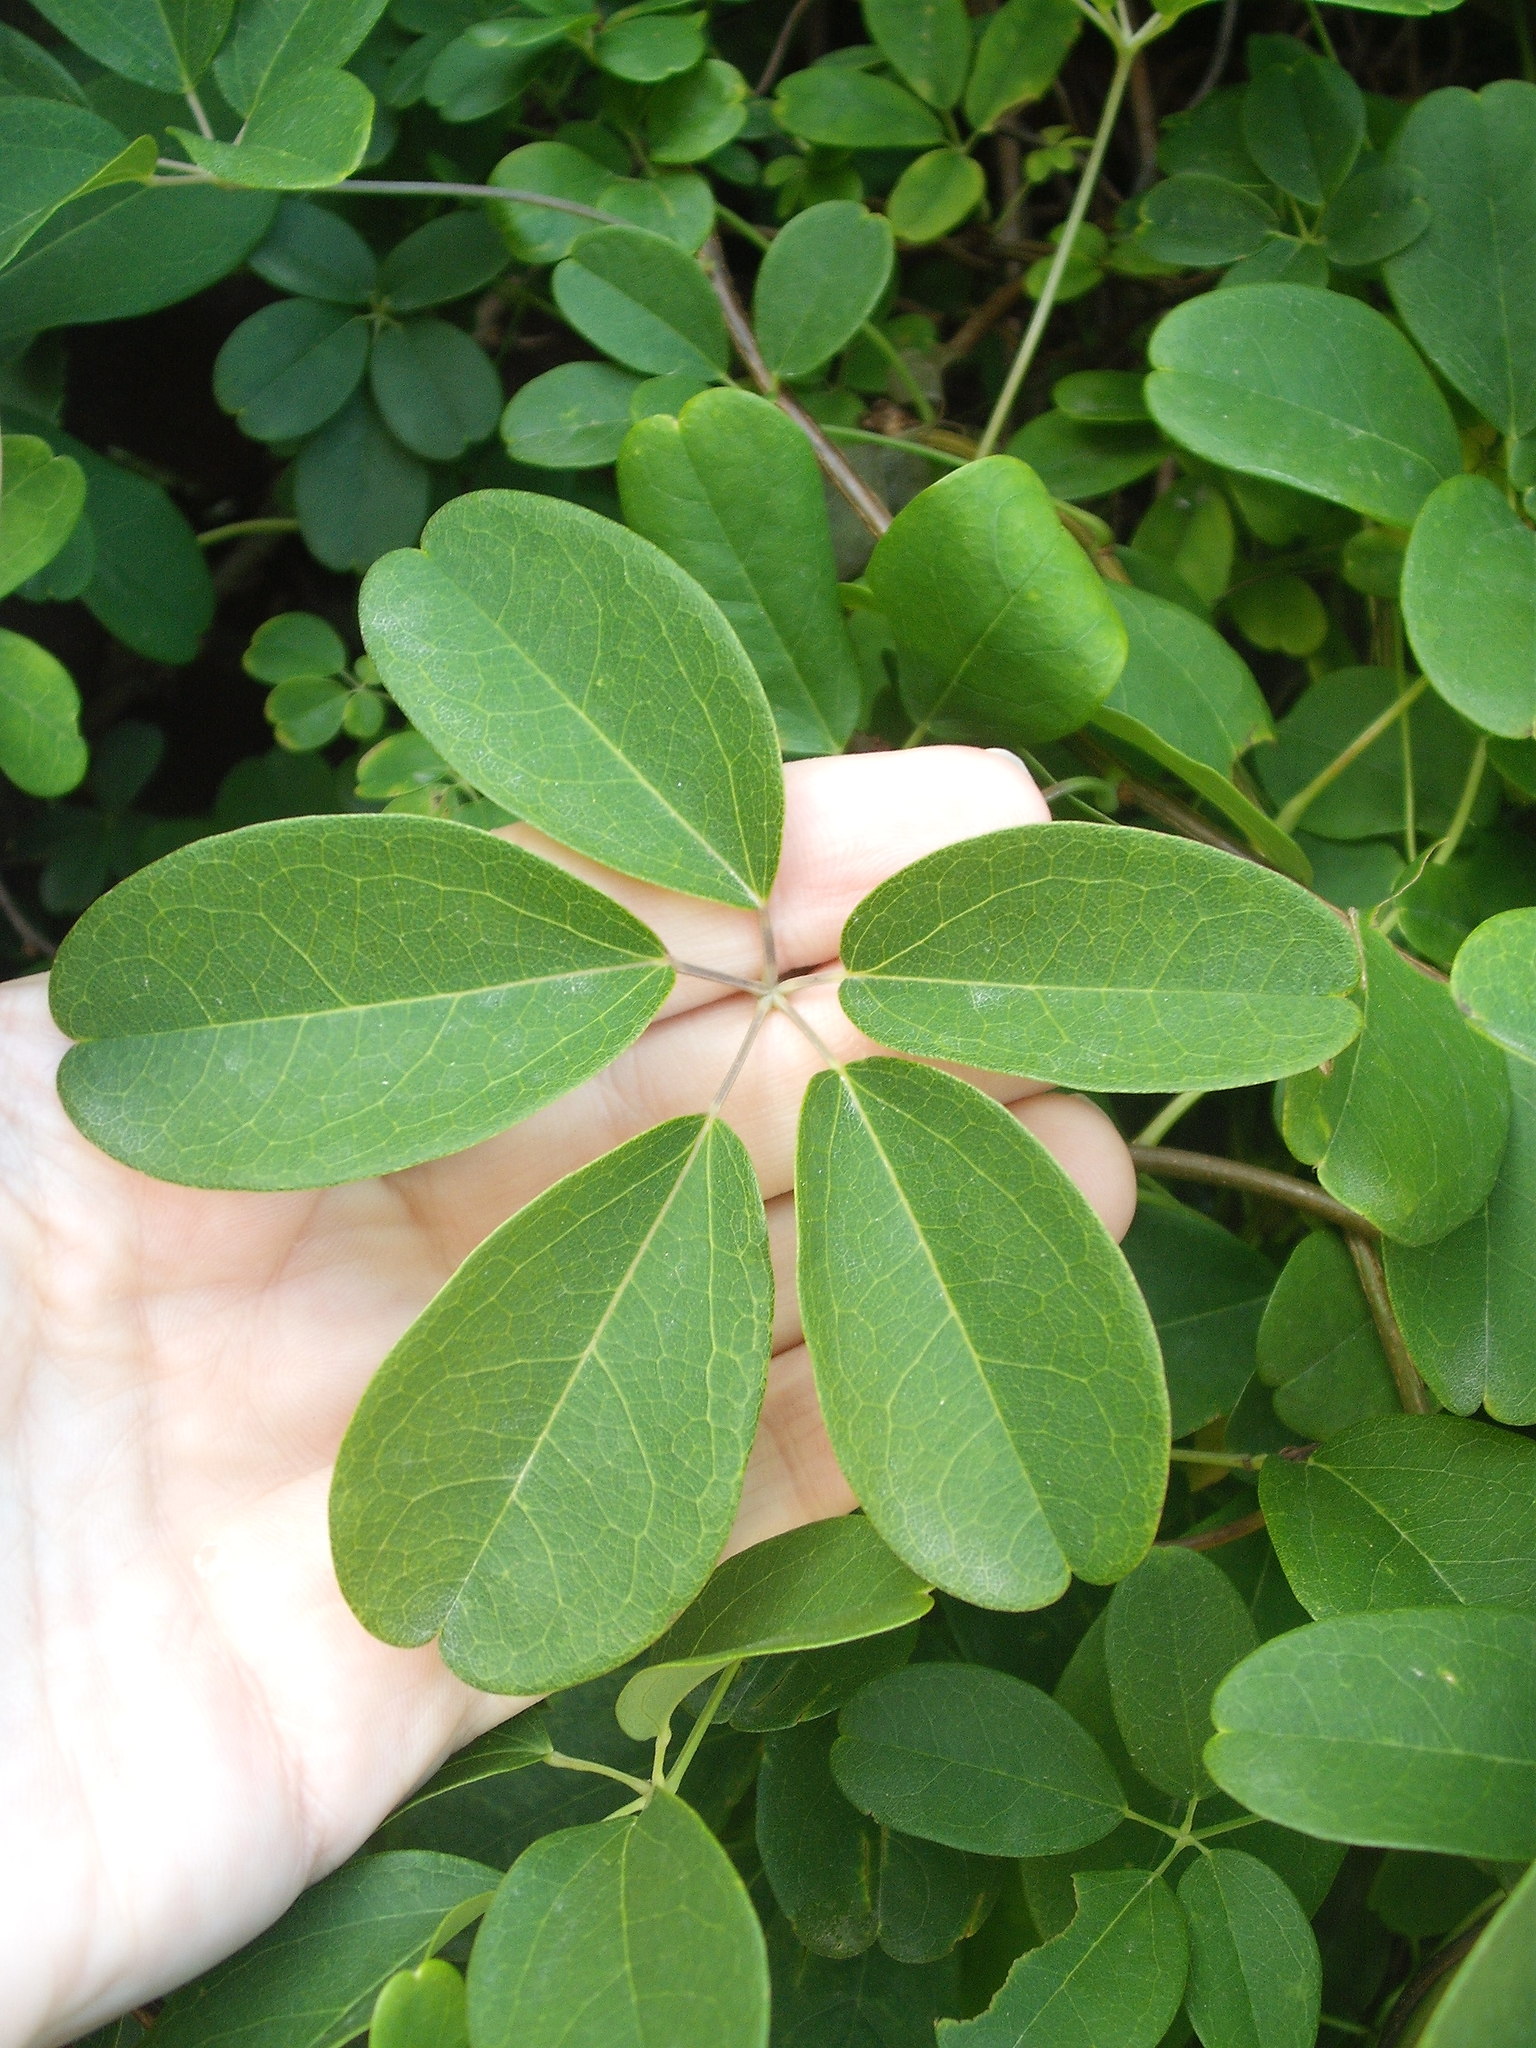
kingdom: Plantae
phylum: Tracheophyta
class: Magnoliopsida
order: Ranunculales
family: Lardizabalaceae
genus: Akebia
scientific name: Akebia quinata
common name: Five-leaf akebia
